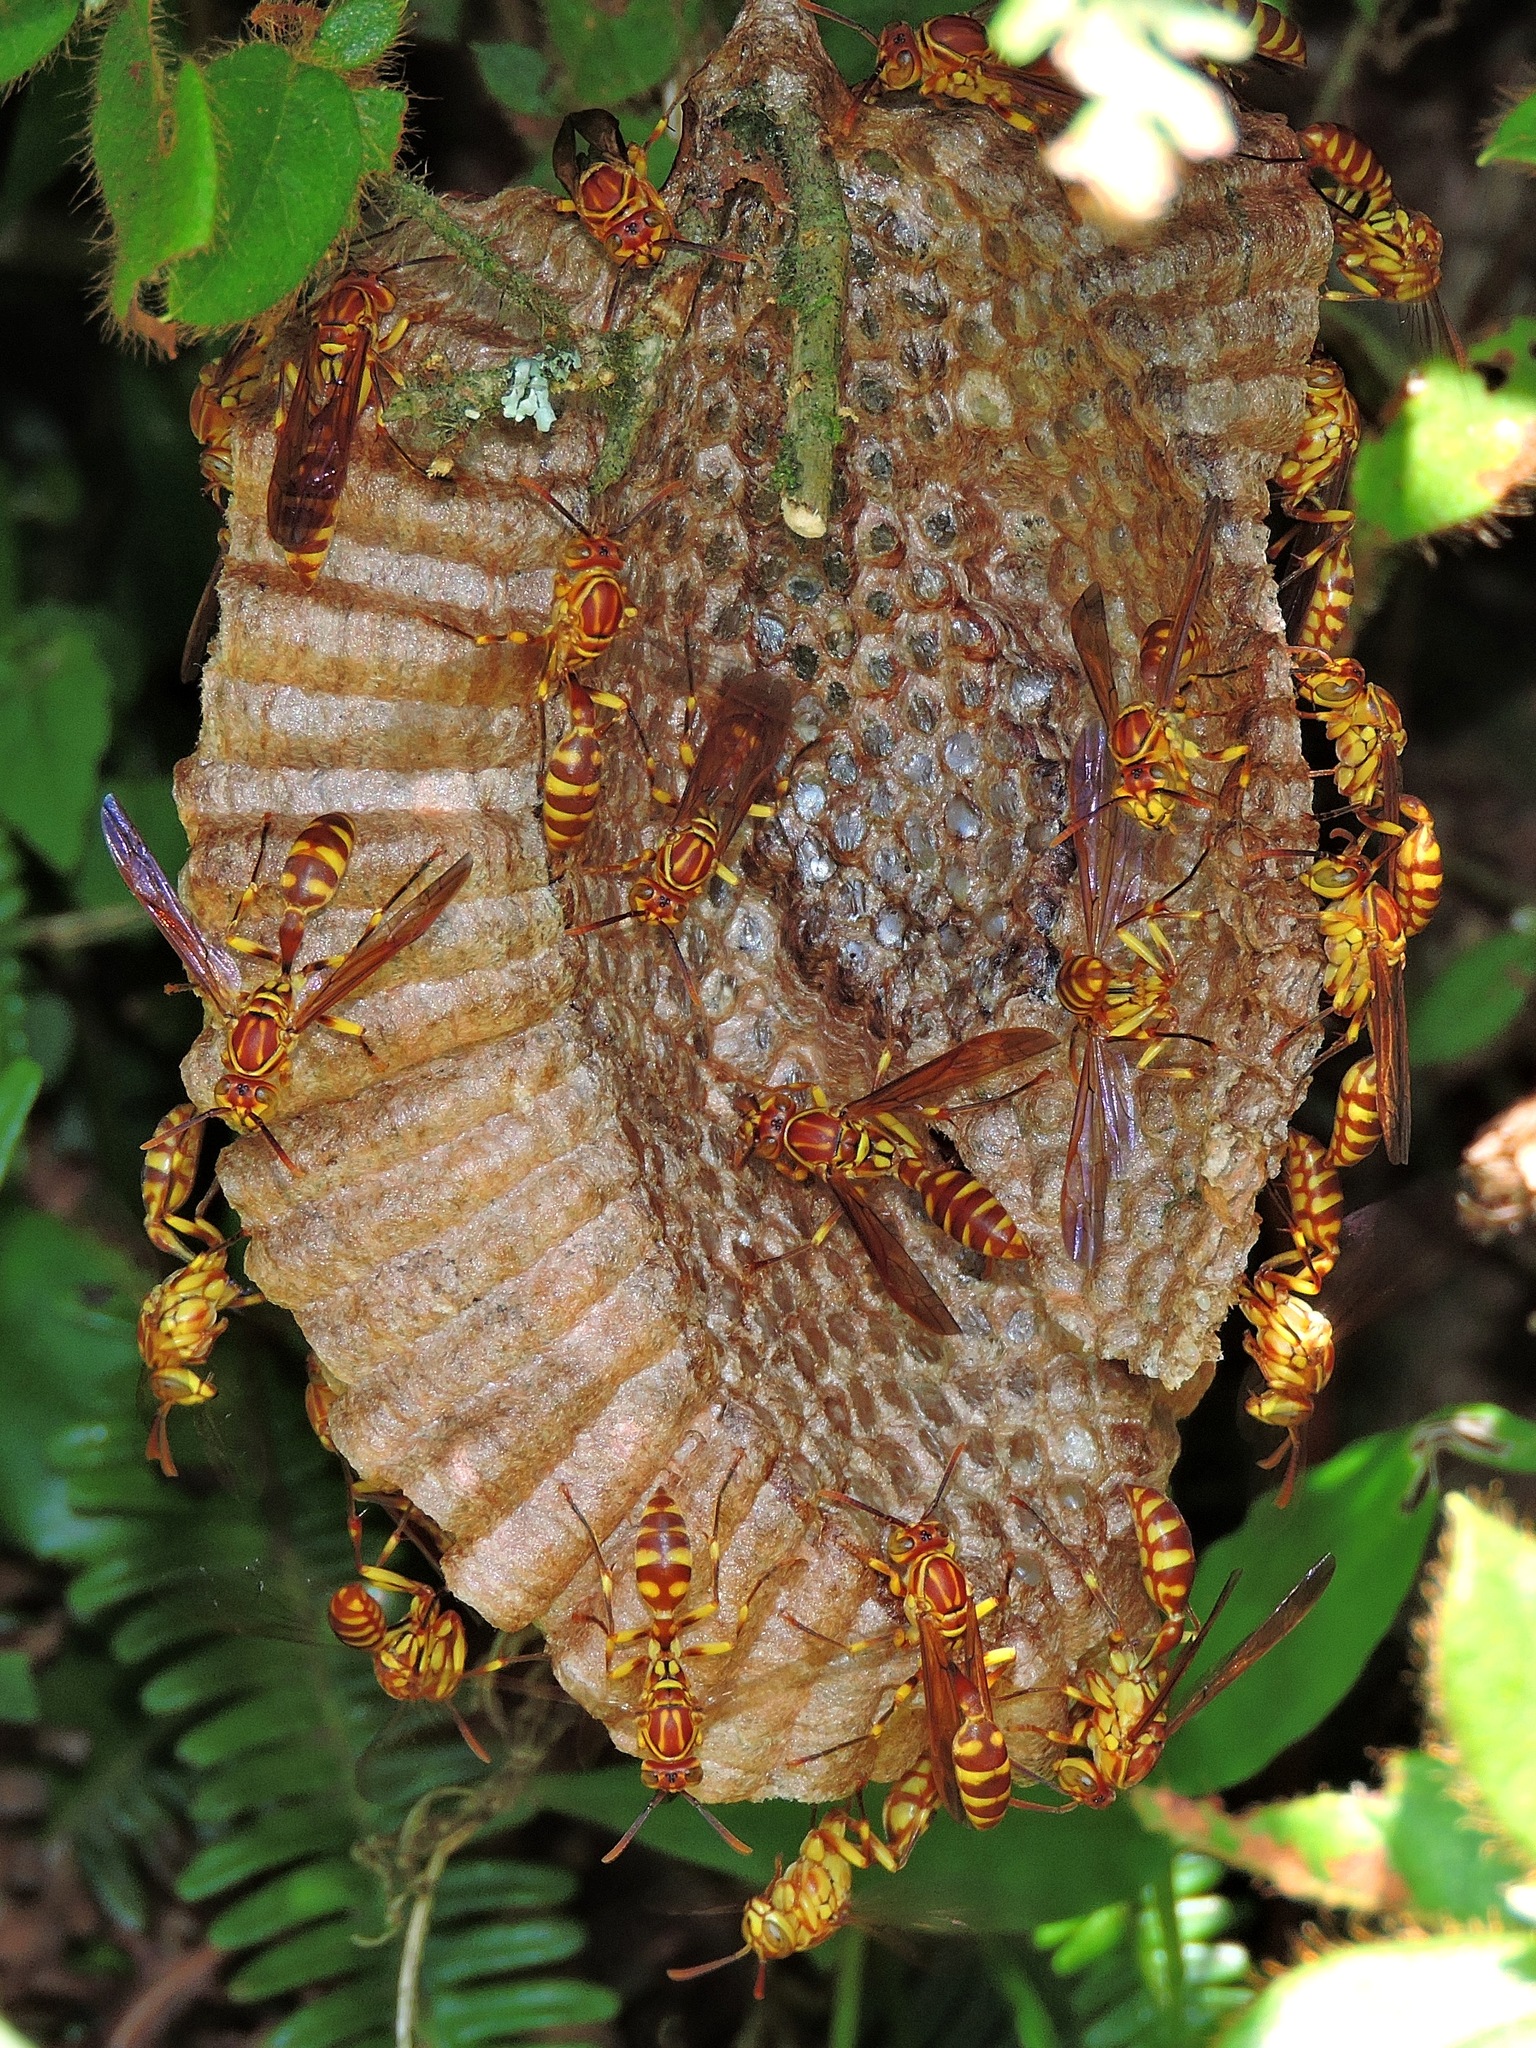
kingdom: Animalia
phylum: Arthropoda
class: Insecta
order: Hymenoptera
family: Vespidae
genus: Parapolybia
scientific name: Parapolybia varia
